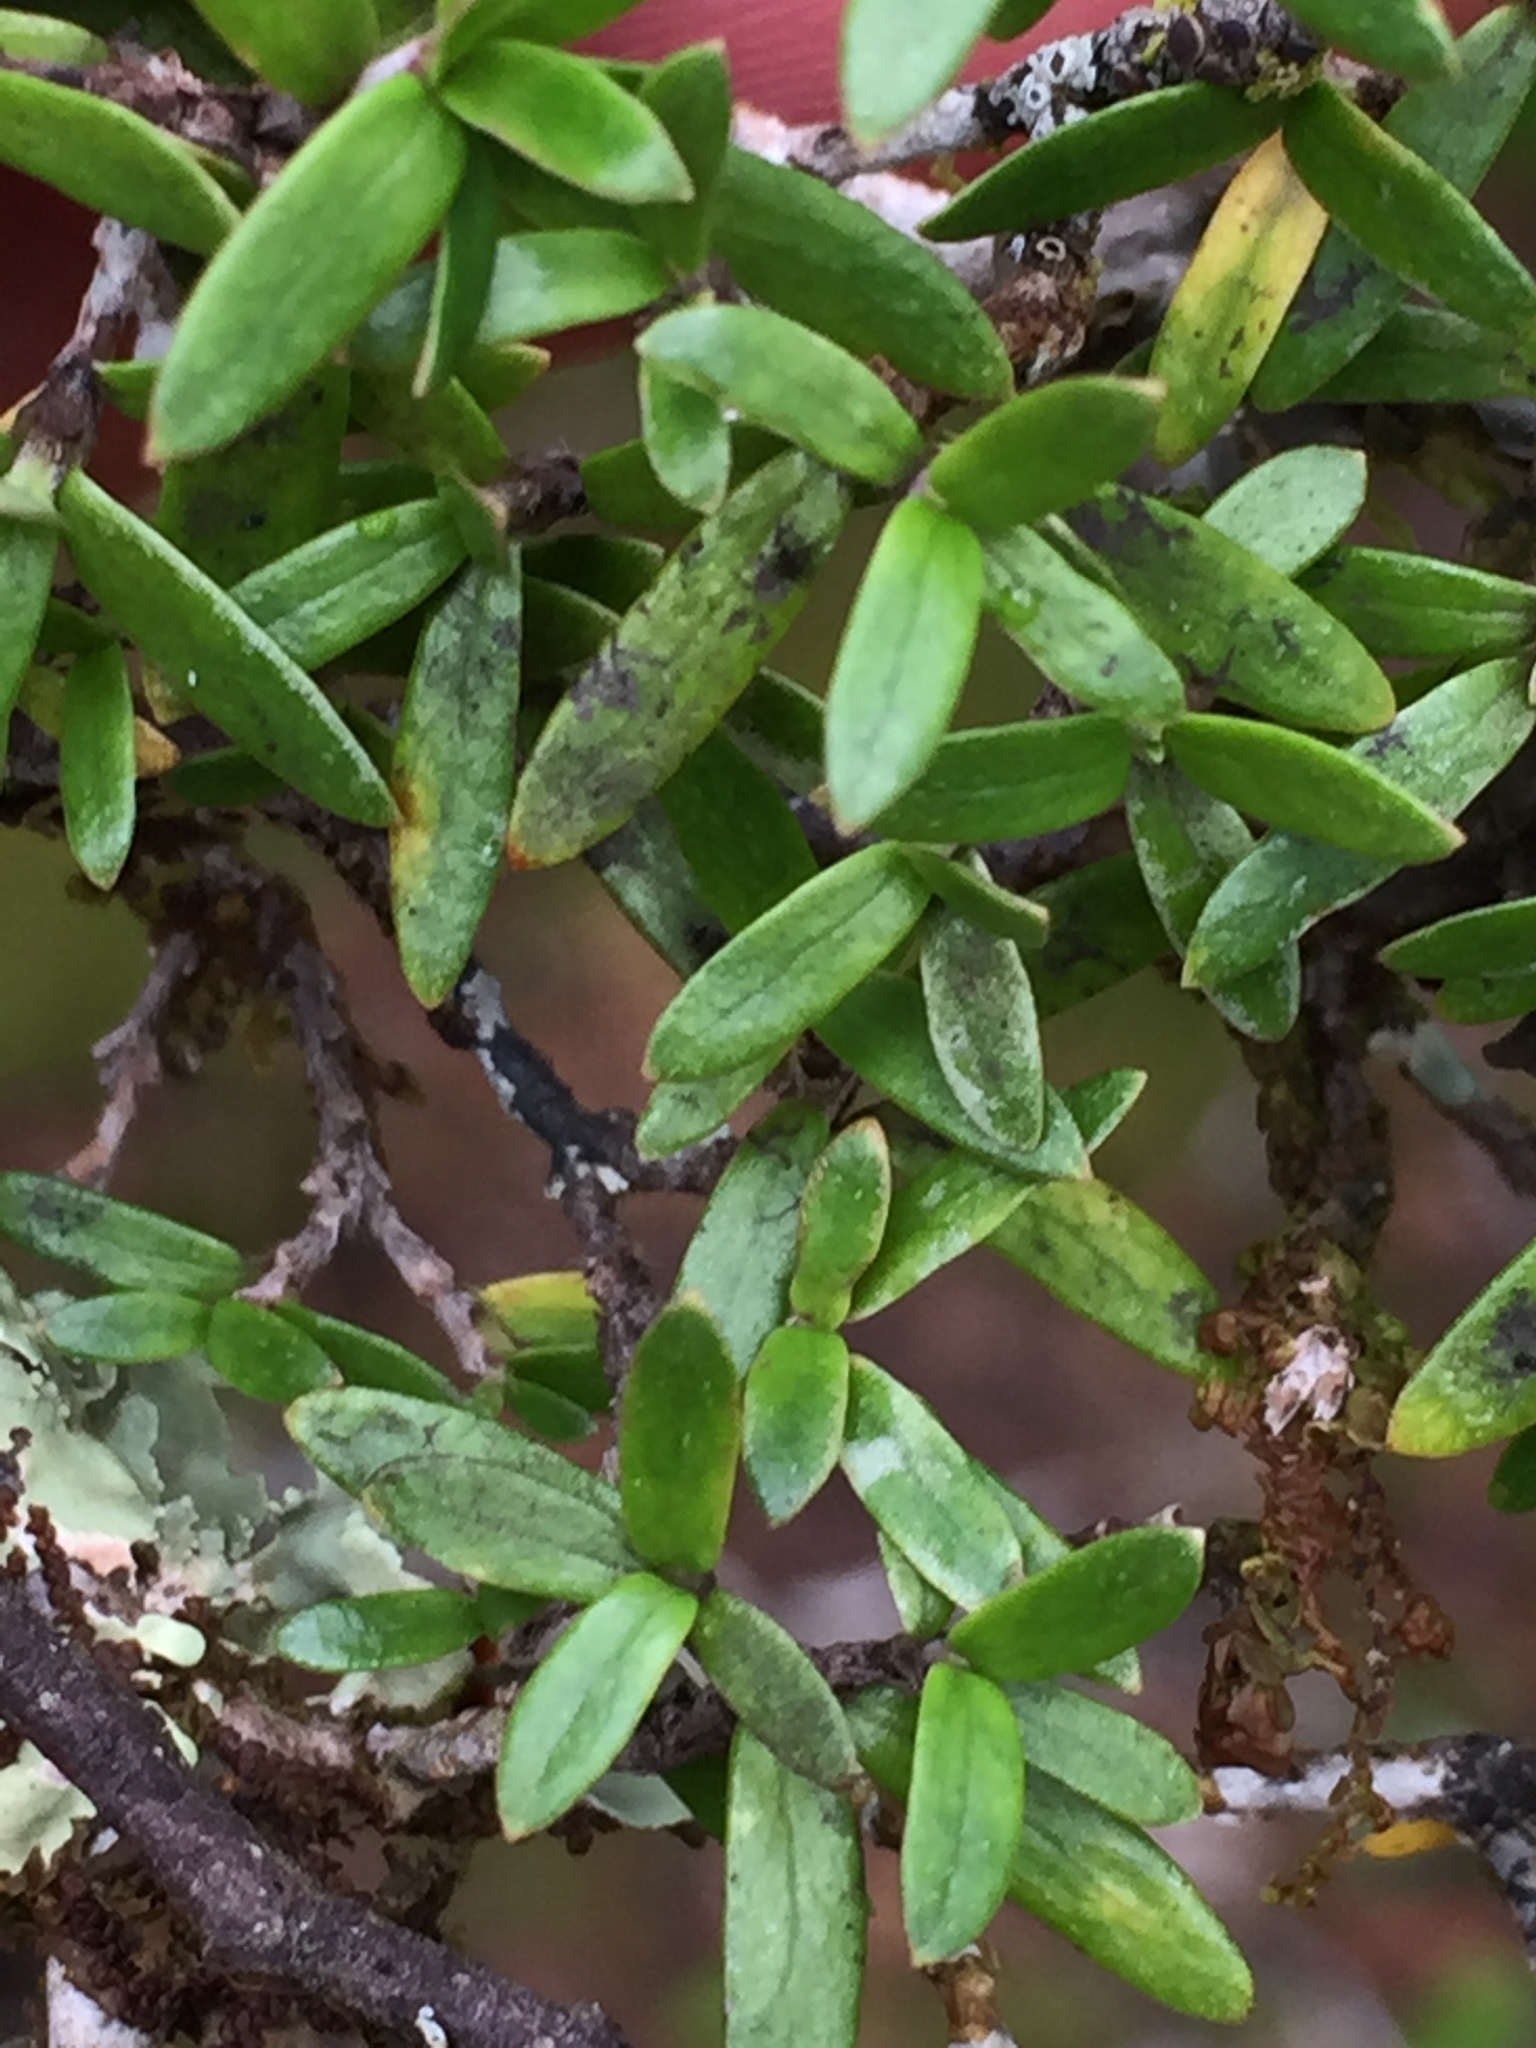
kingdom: Plantae
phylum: Tracheophyta
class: Magnoliopsida
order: Gentianales
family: Rubiaceae
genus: Coprosma
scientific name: Coprosma microcarpa
